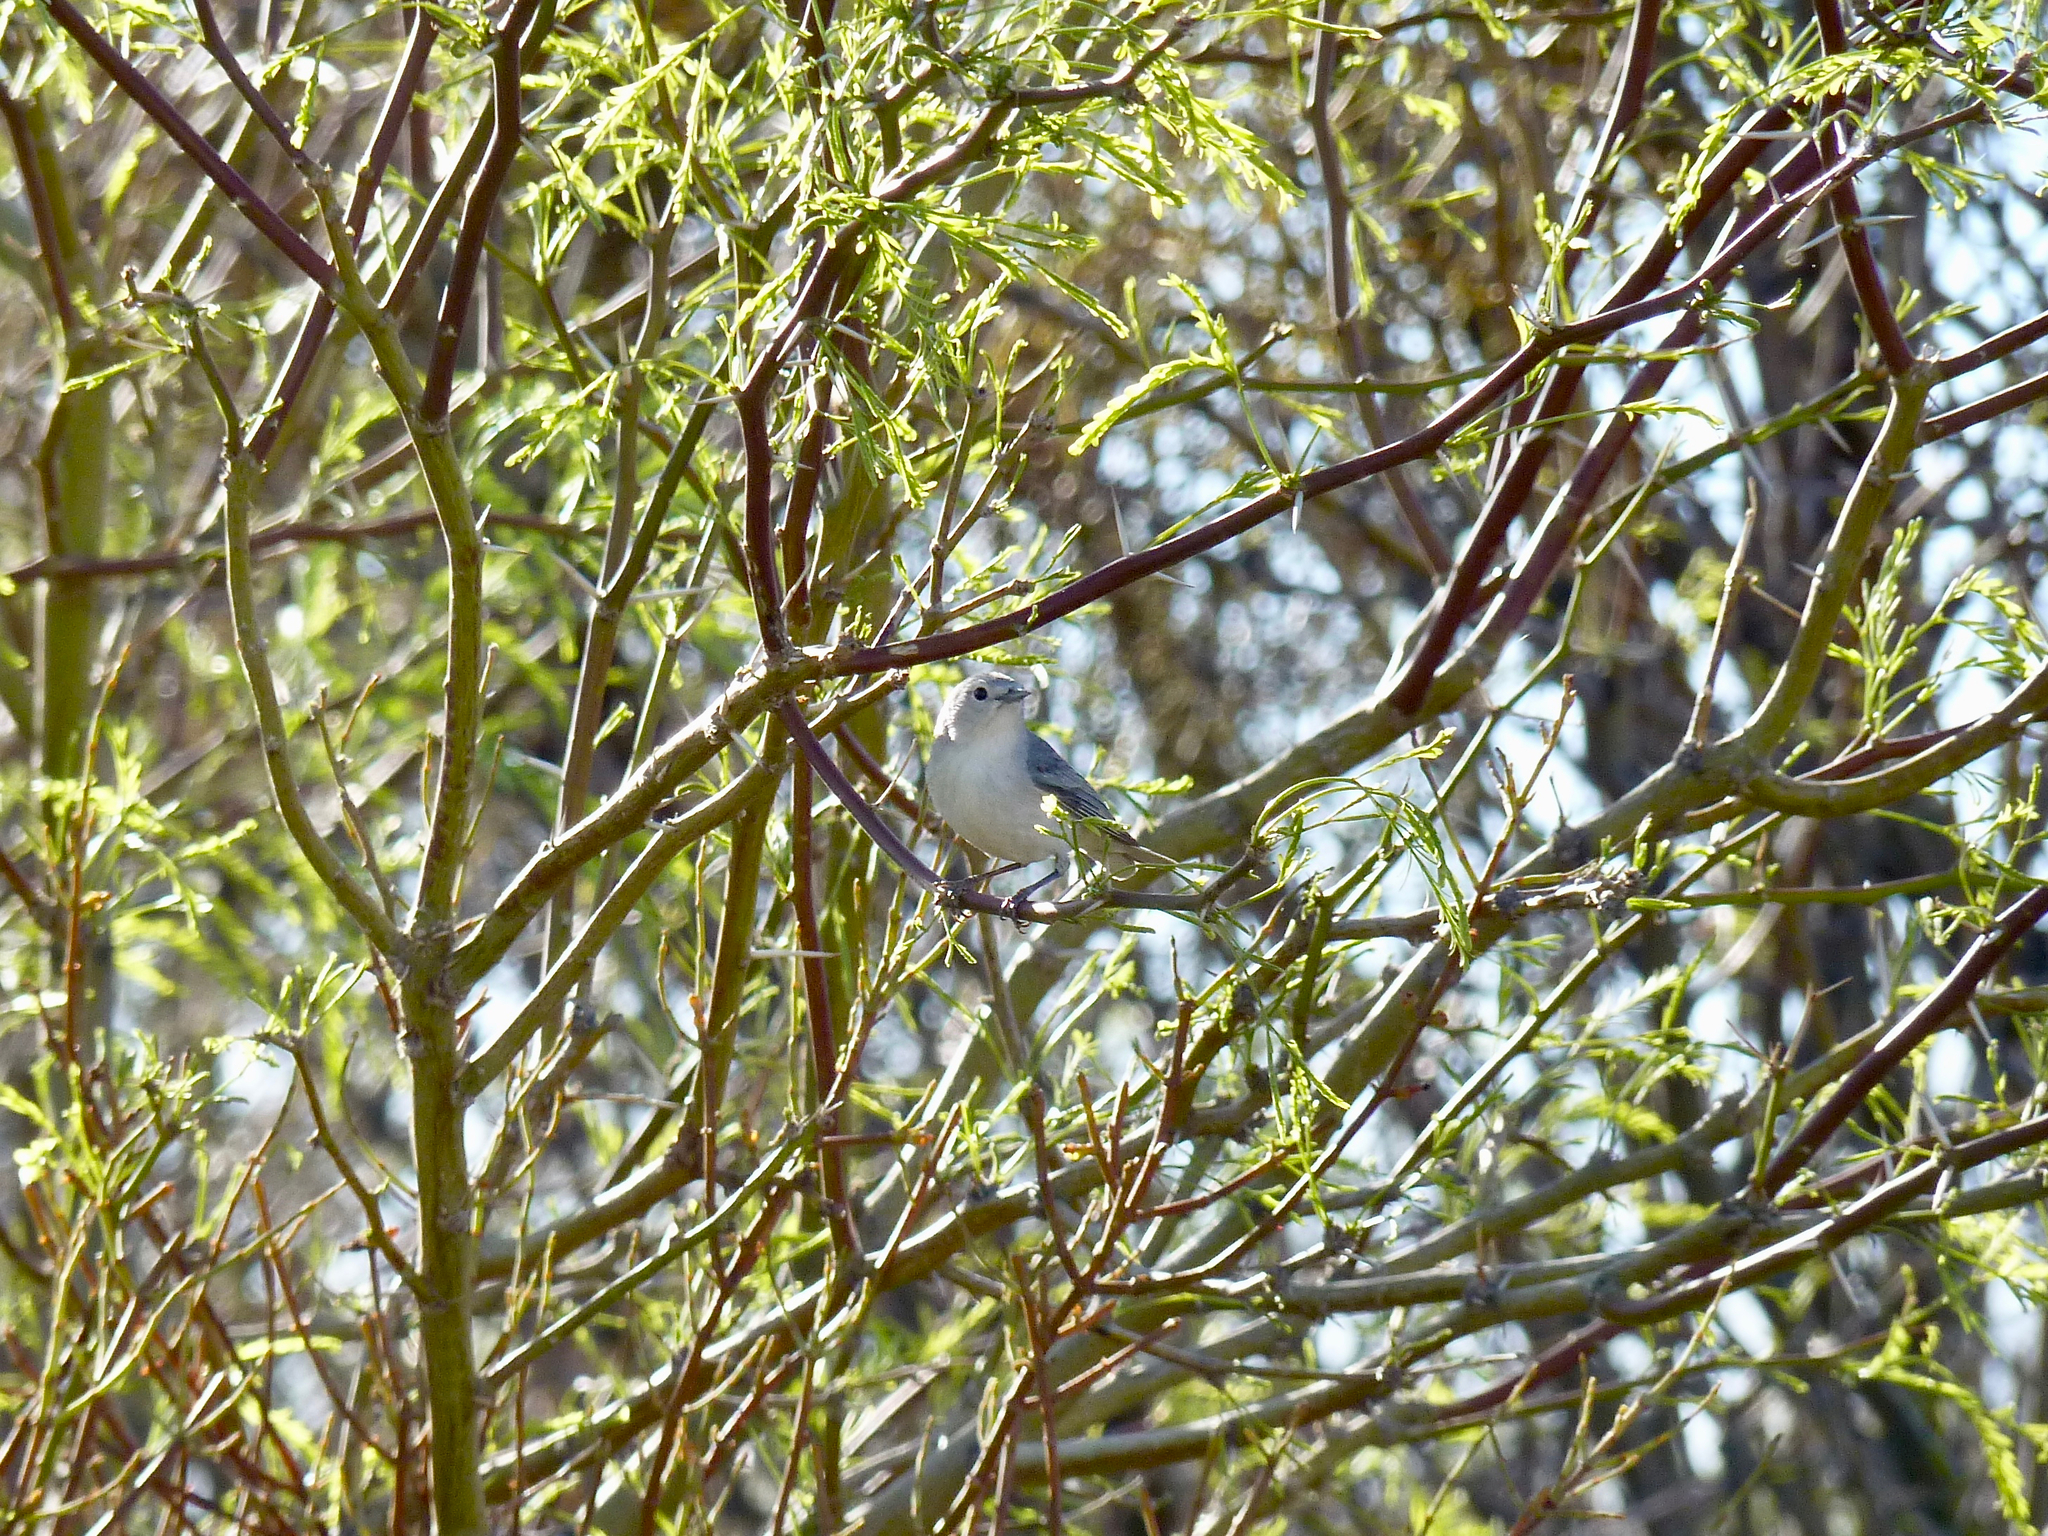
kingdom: Animalia
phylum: Chordata
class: Aves
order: Passeriformes
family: Parulidae
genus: Leiothlypis
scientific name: Leiothlypis luciae
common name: Lucy's warbler
